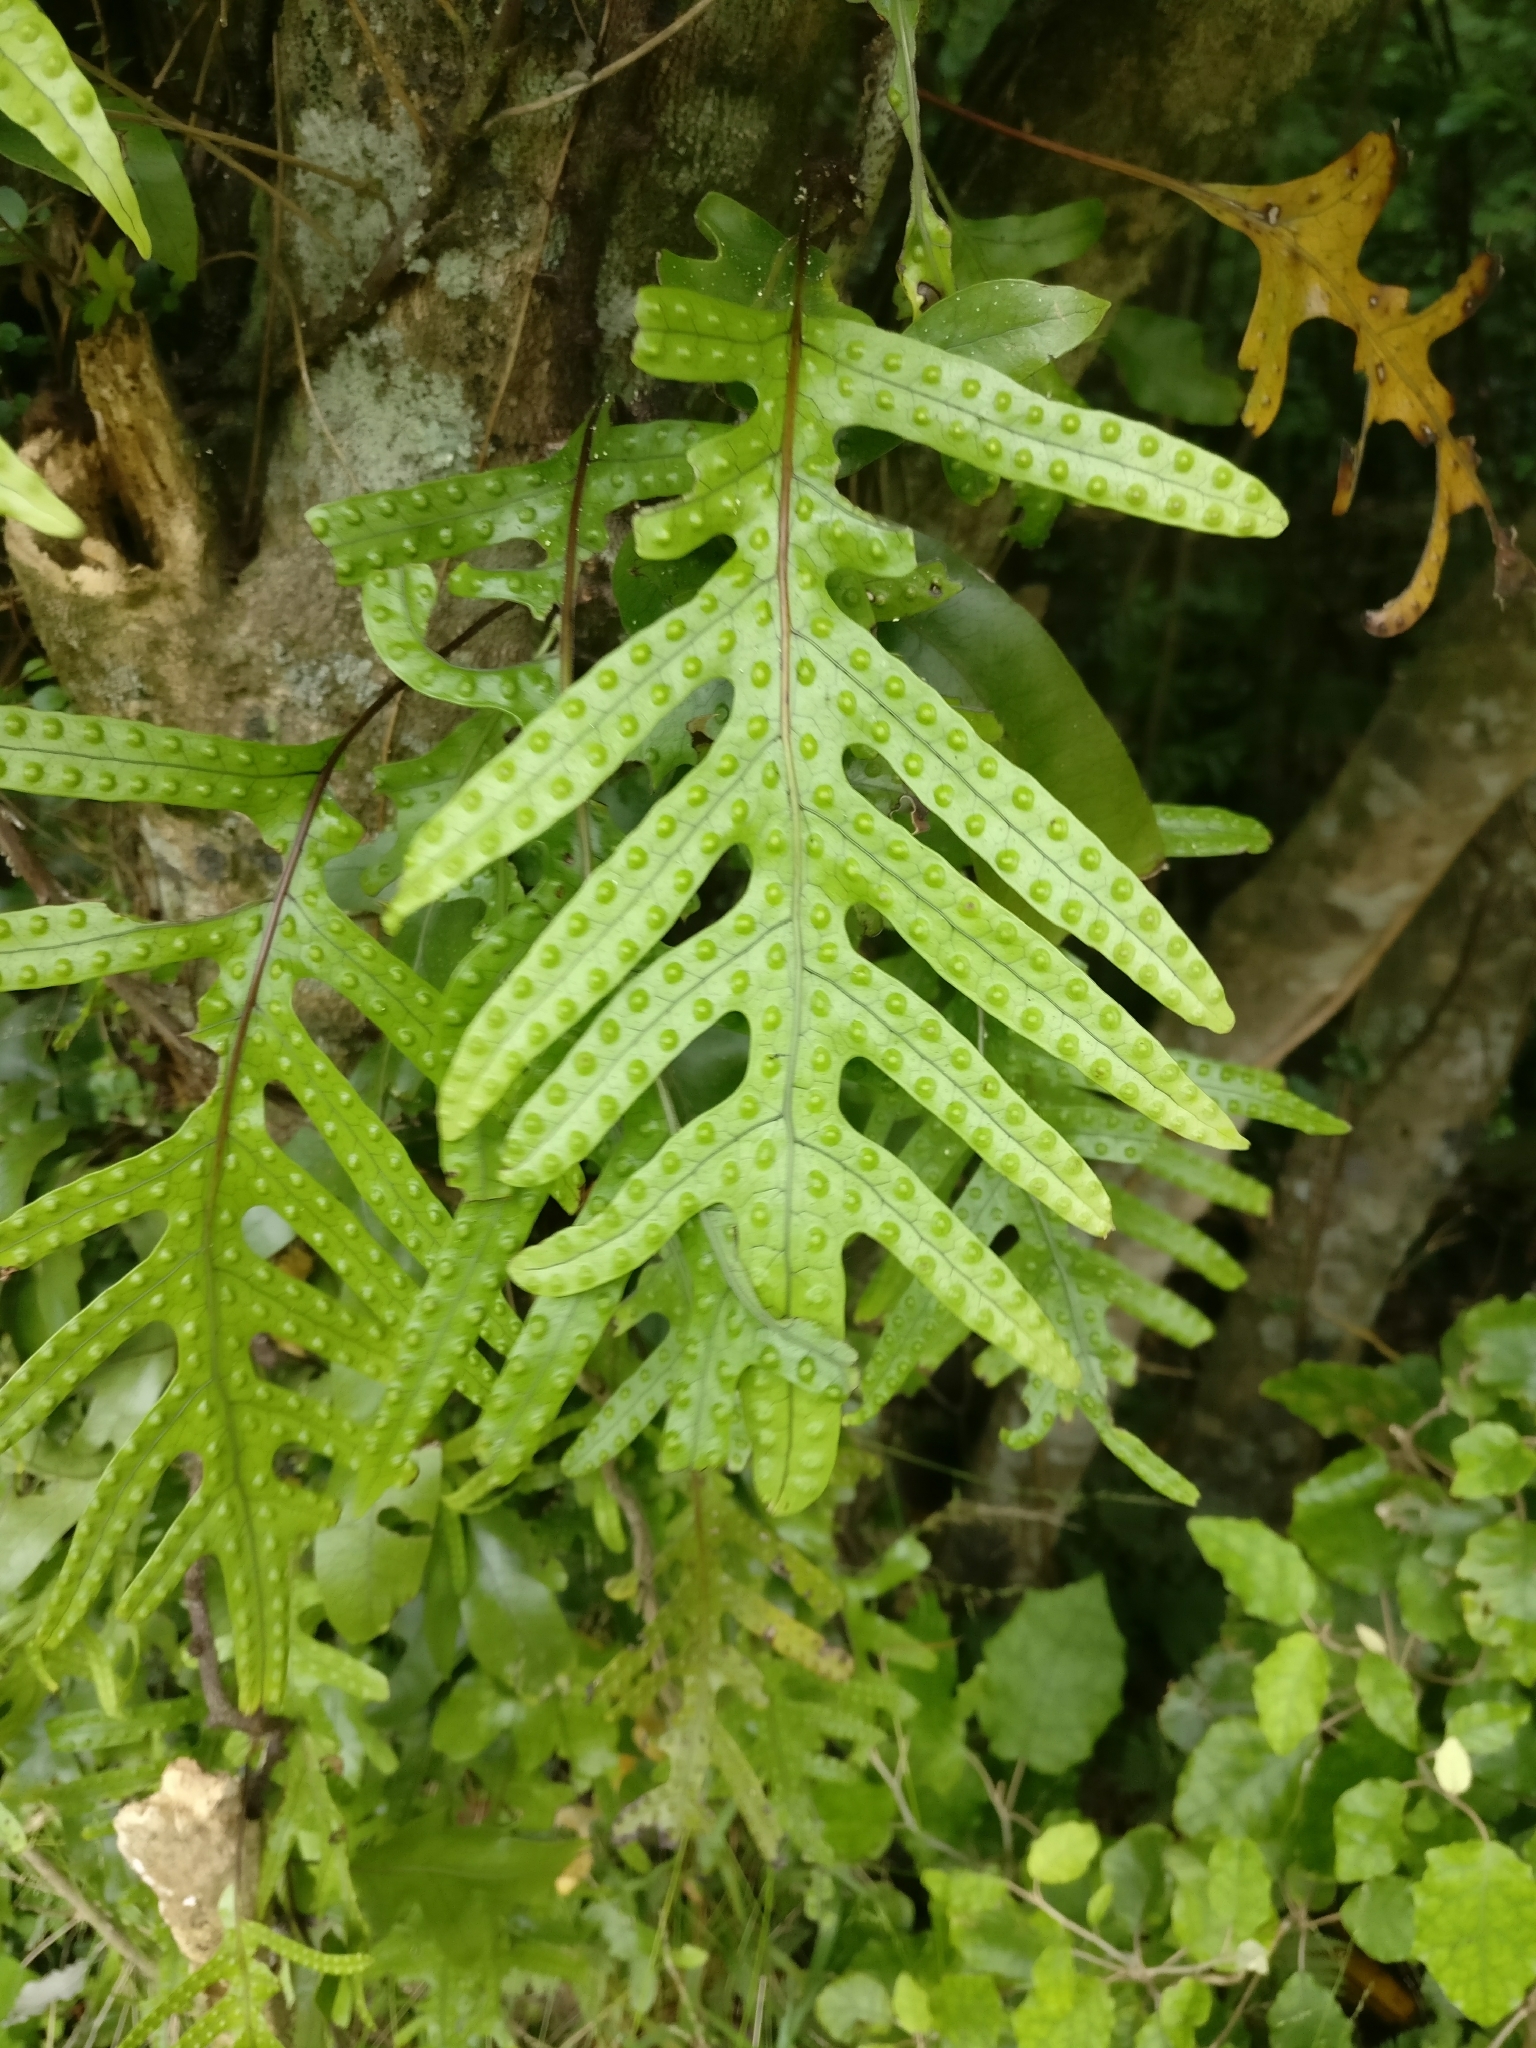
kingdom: Plantae
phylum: Tracheophyta
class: Polypodiopsida
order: Polypodiales
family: Polypodiaceae
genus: Lecanopteris
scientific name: Lecanopteris pustulata
